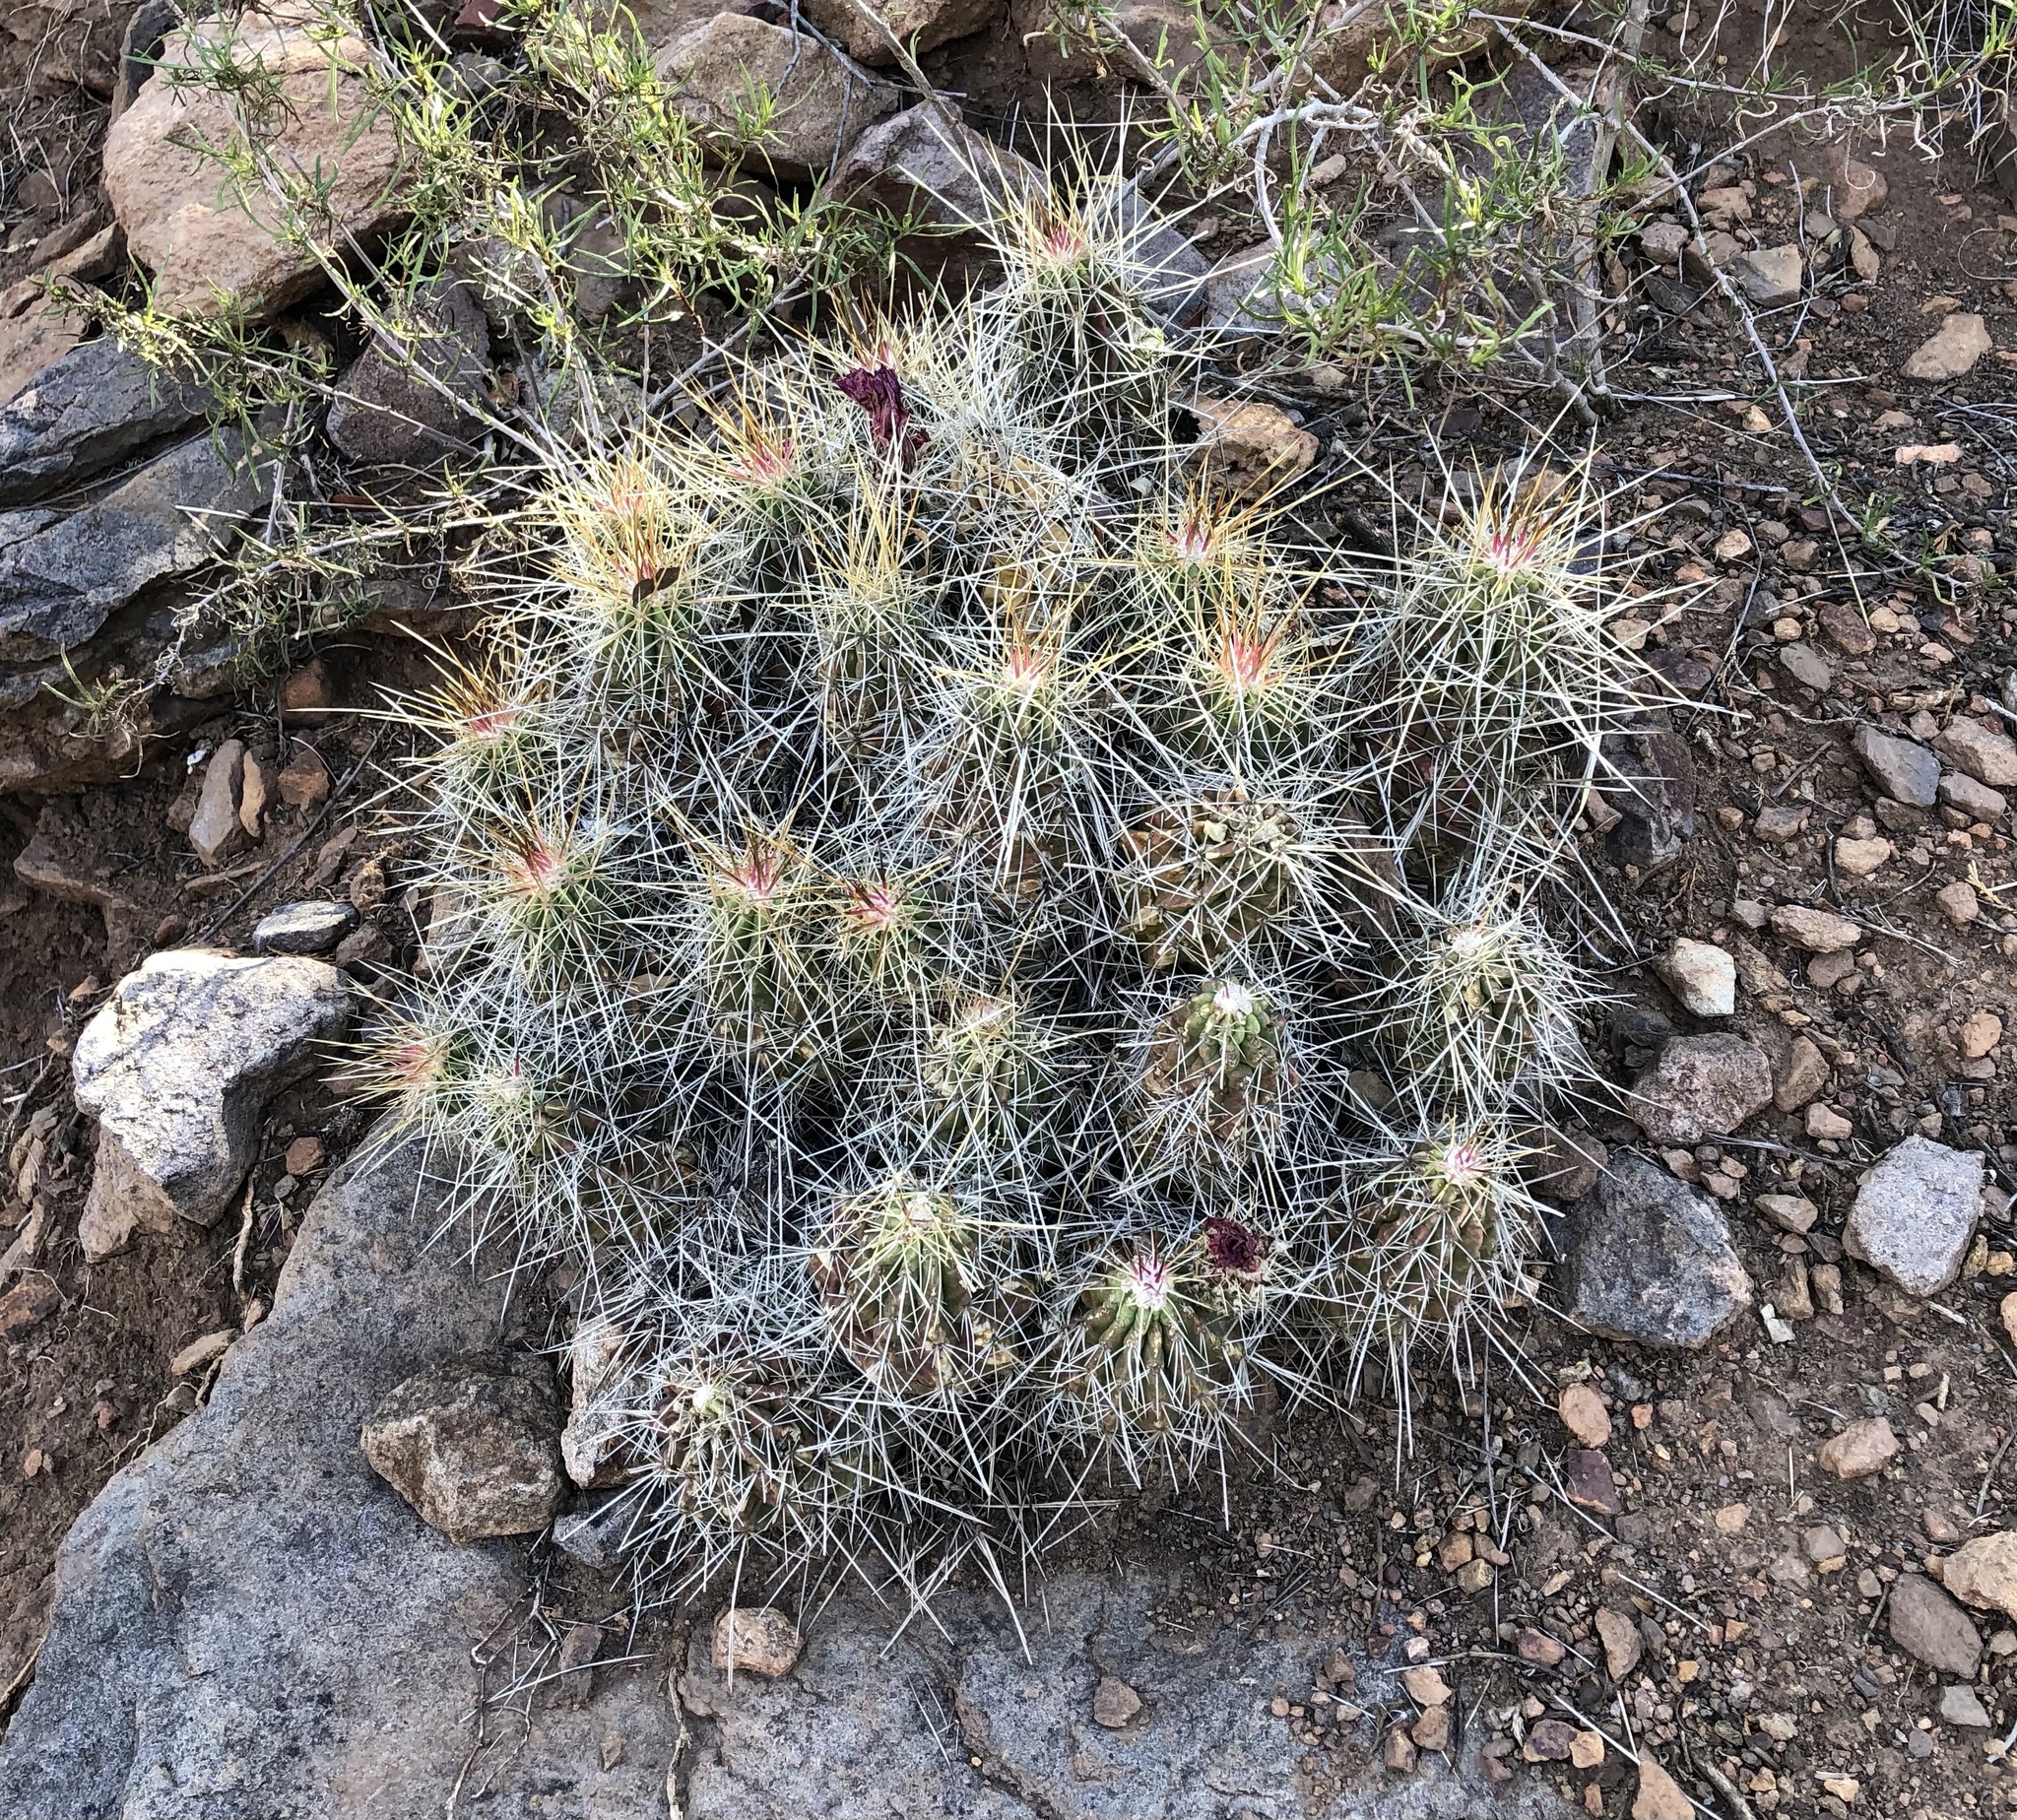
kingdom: Plantae
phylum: Tracheophyta
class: Magnoliopsida
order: Caryophyllales
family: Cactaceae
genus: Echinocereus
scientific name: Echinocereus stramineus
